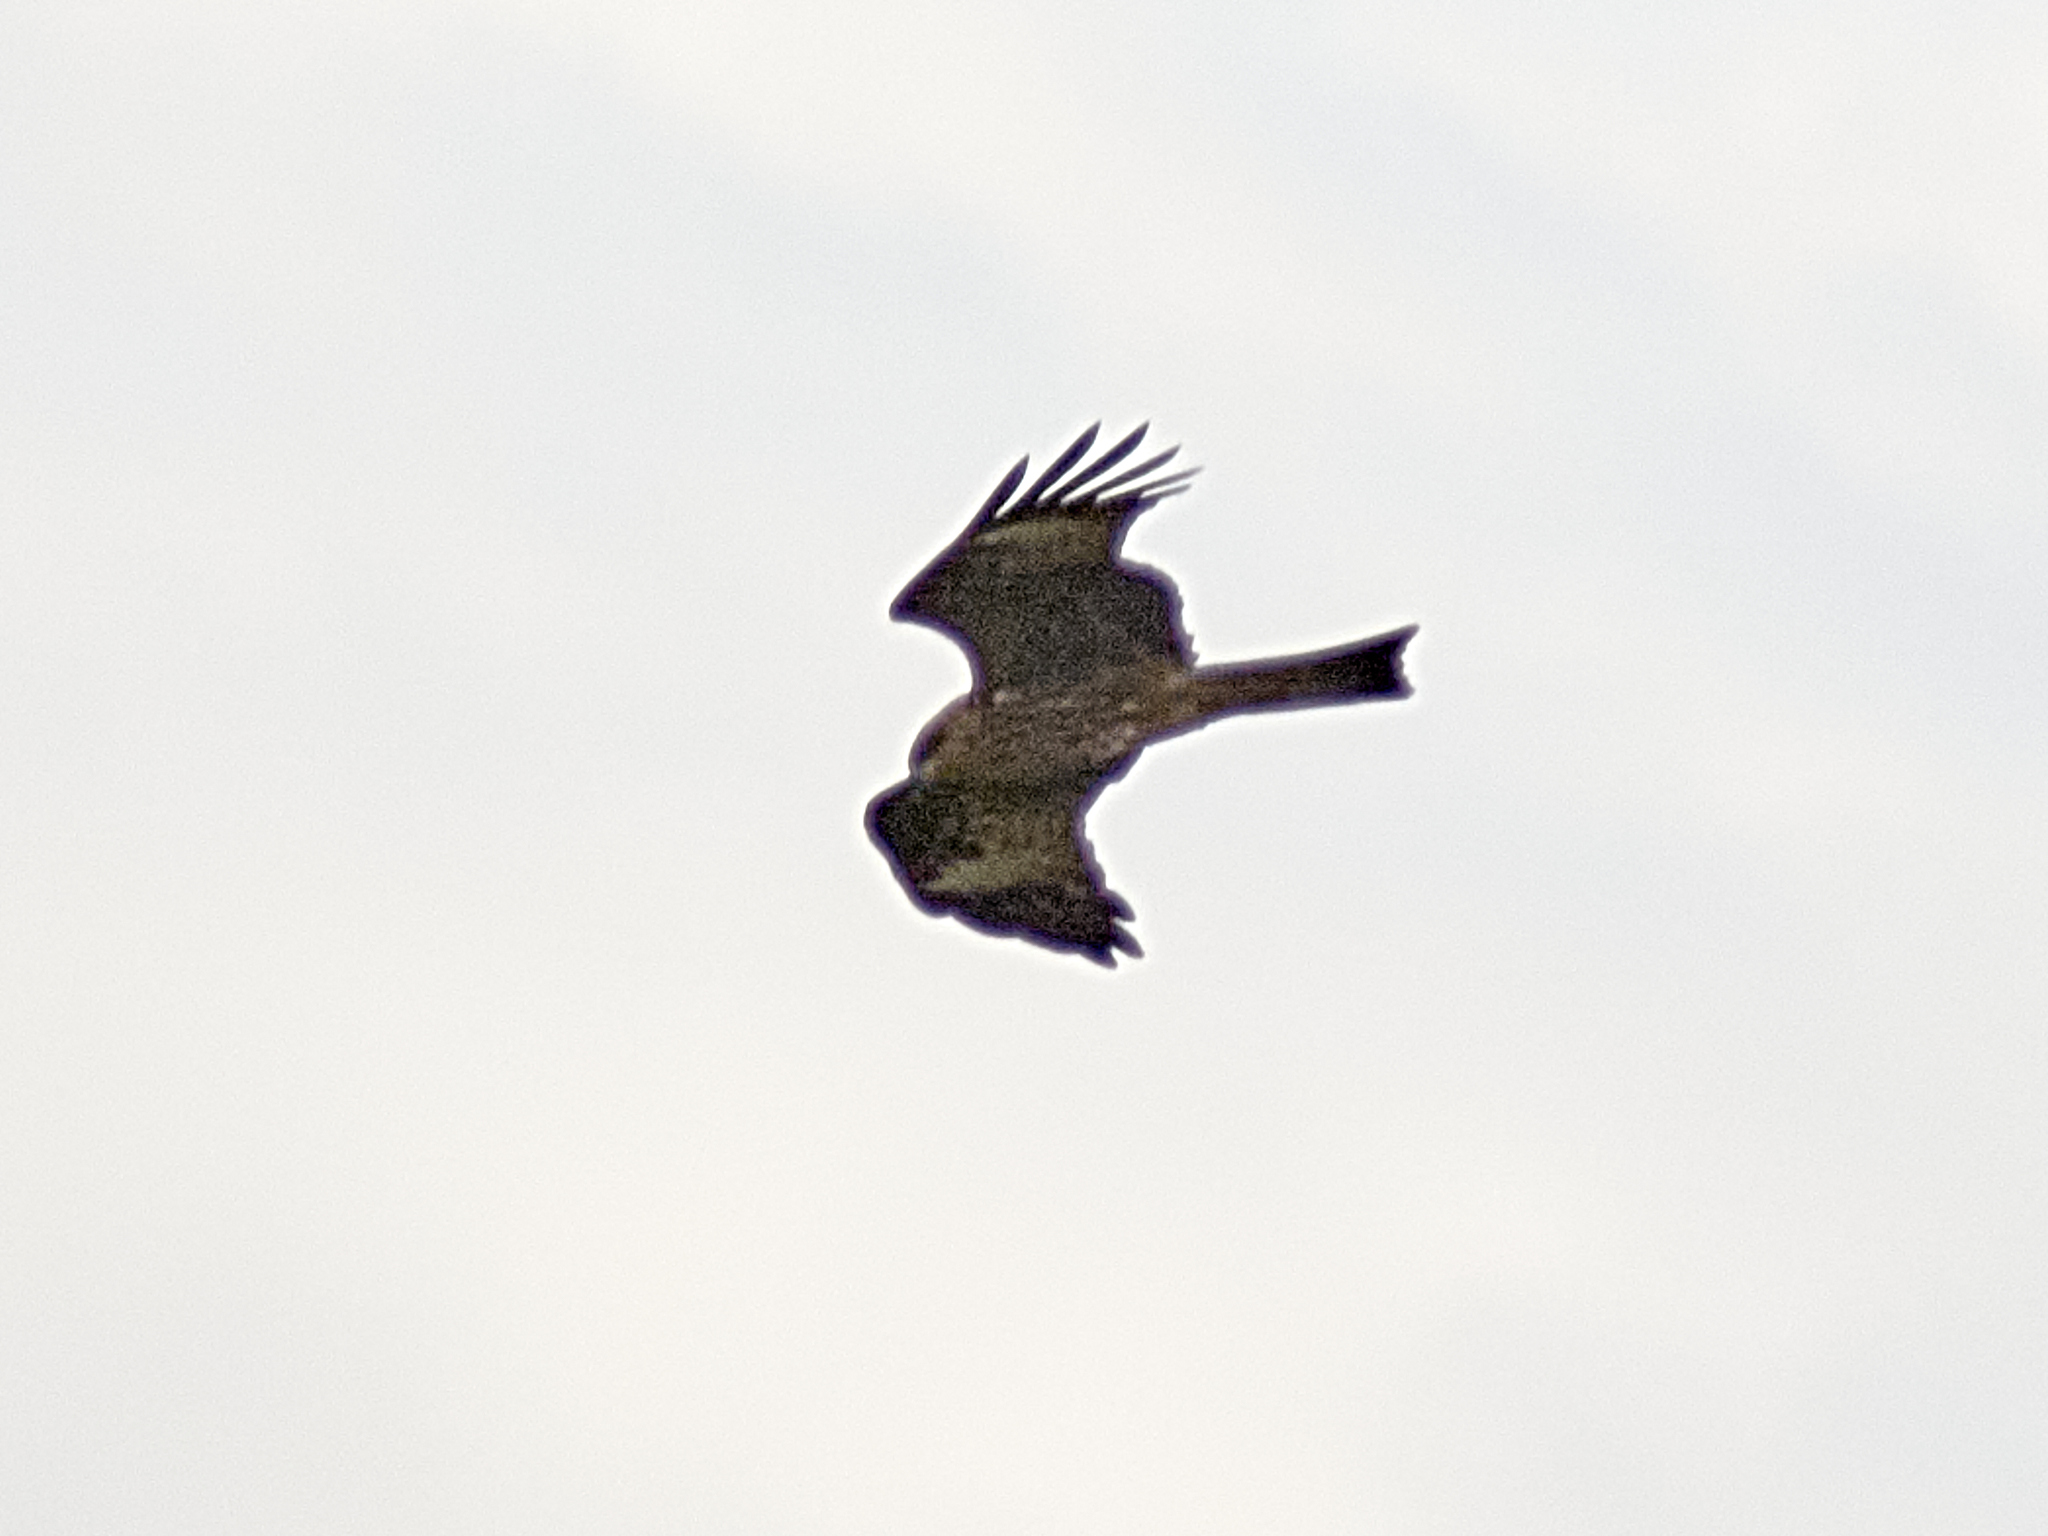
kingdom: Animalia
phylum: Chordata
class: Aves
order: Accipitriformes
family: Accipitridae
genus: Milvus
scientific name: Milvus migrans
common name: Black kite
